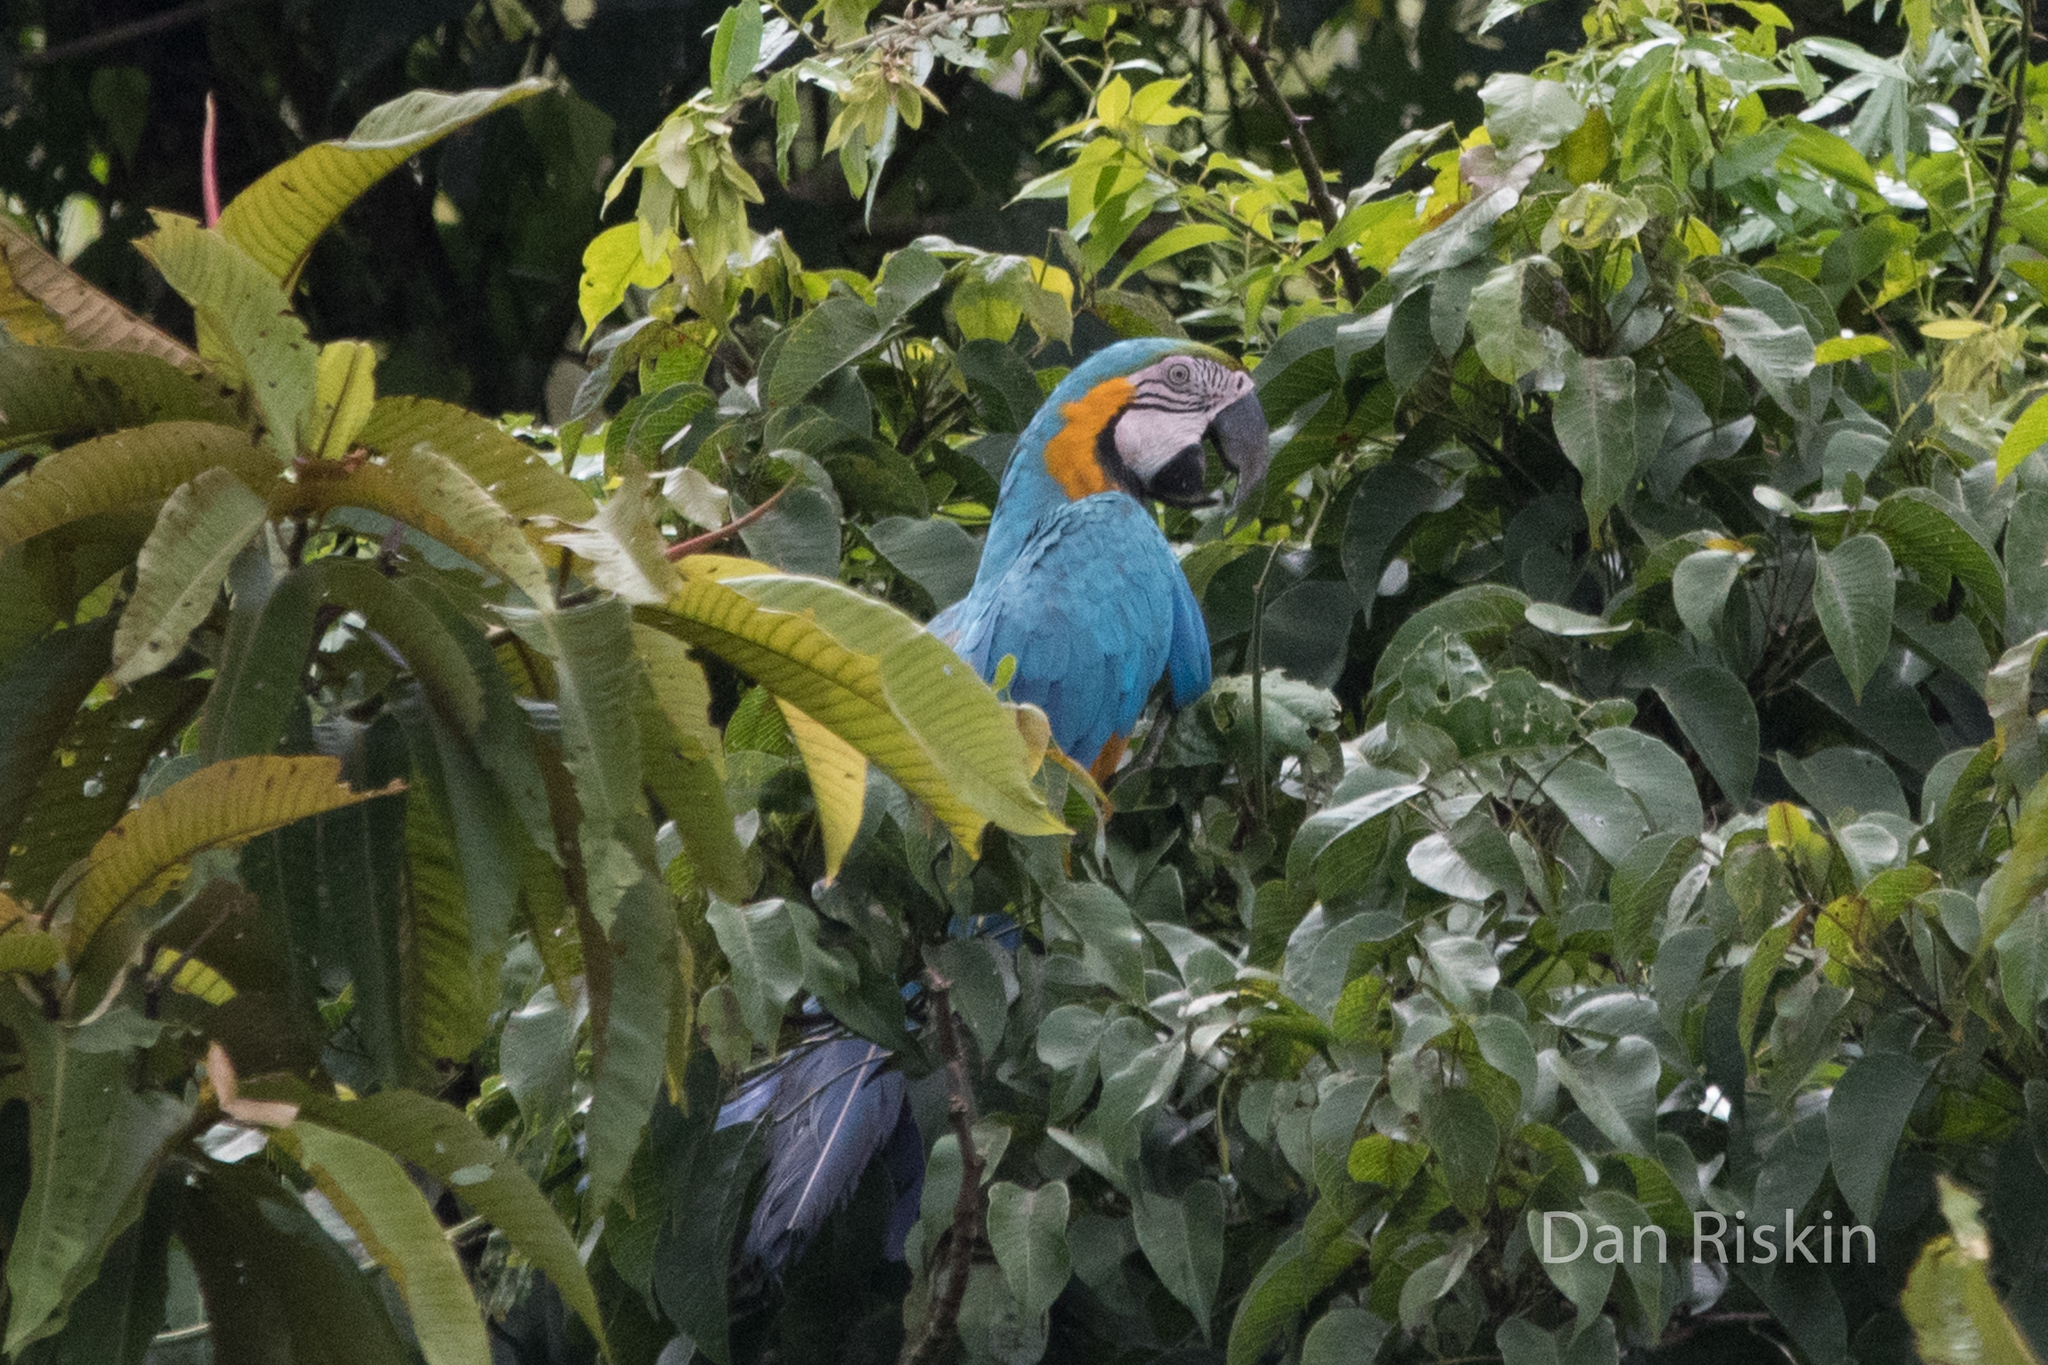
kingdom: Animalia
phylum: Chordata
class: Aves
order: Psittaciformes
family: Psittacidae
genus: Ara
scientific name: Ara ararauna
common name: Blue-and-yellow macaw
